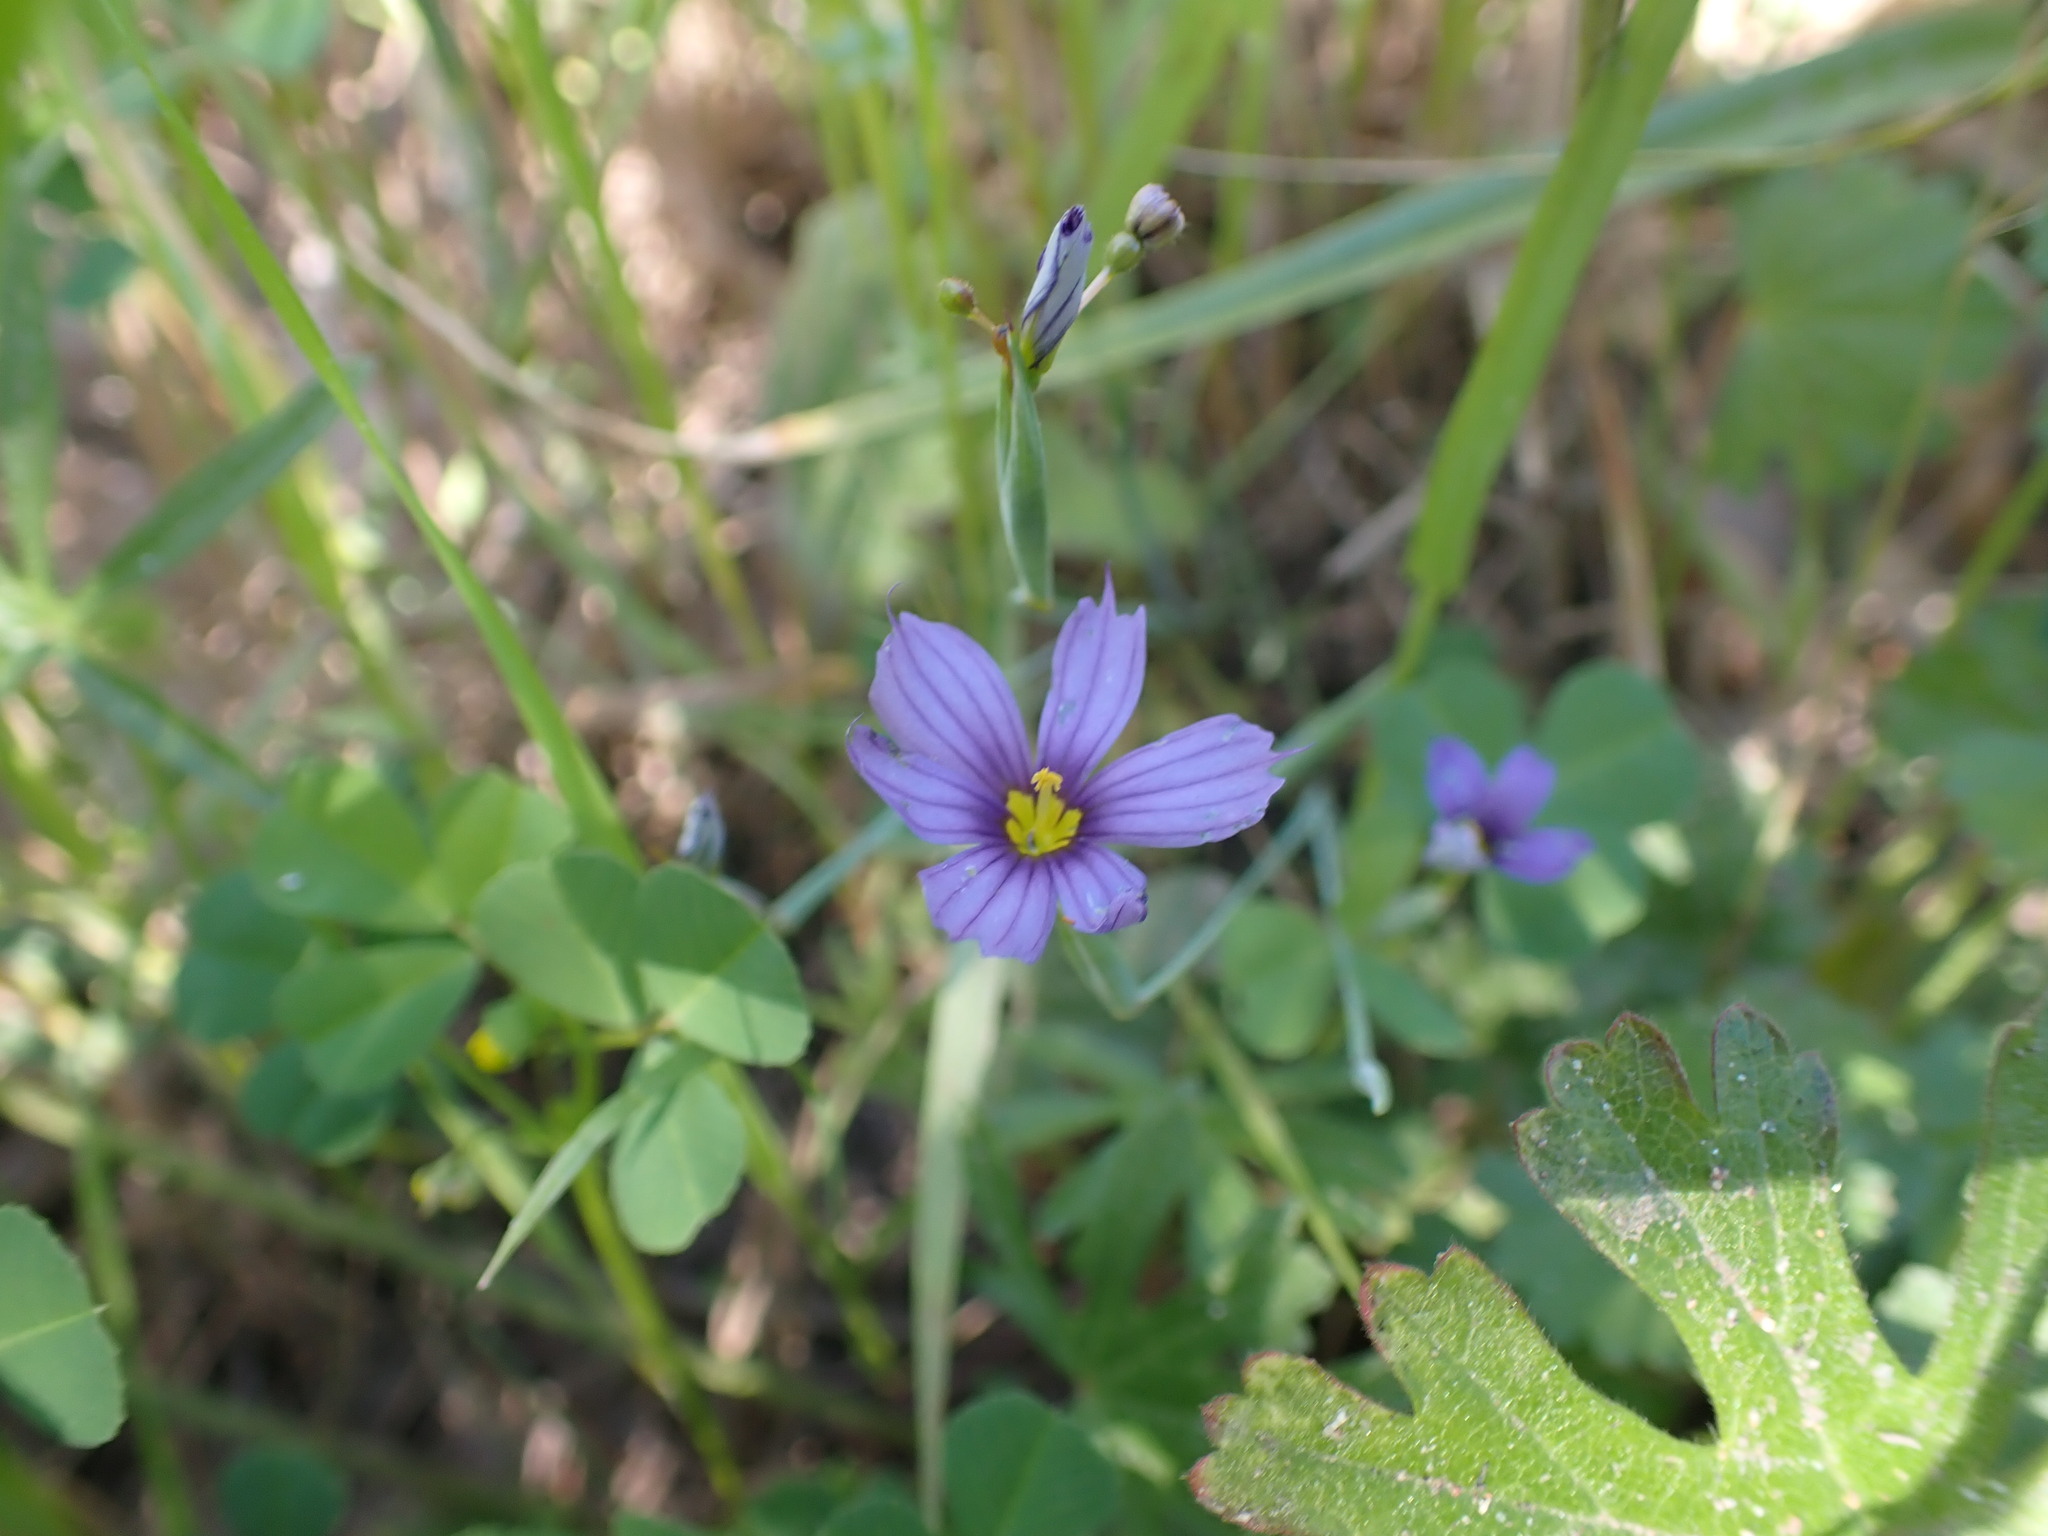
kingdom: Plantae
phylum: Tracheophyta
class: Liliopsida
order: Asparagales
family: Iridaceae
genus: Sisyrinchium
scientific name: Sisyrinchium bellum
